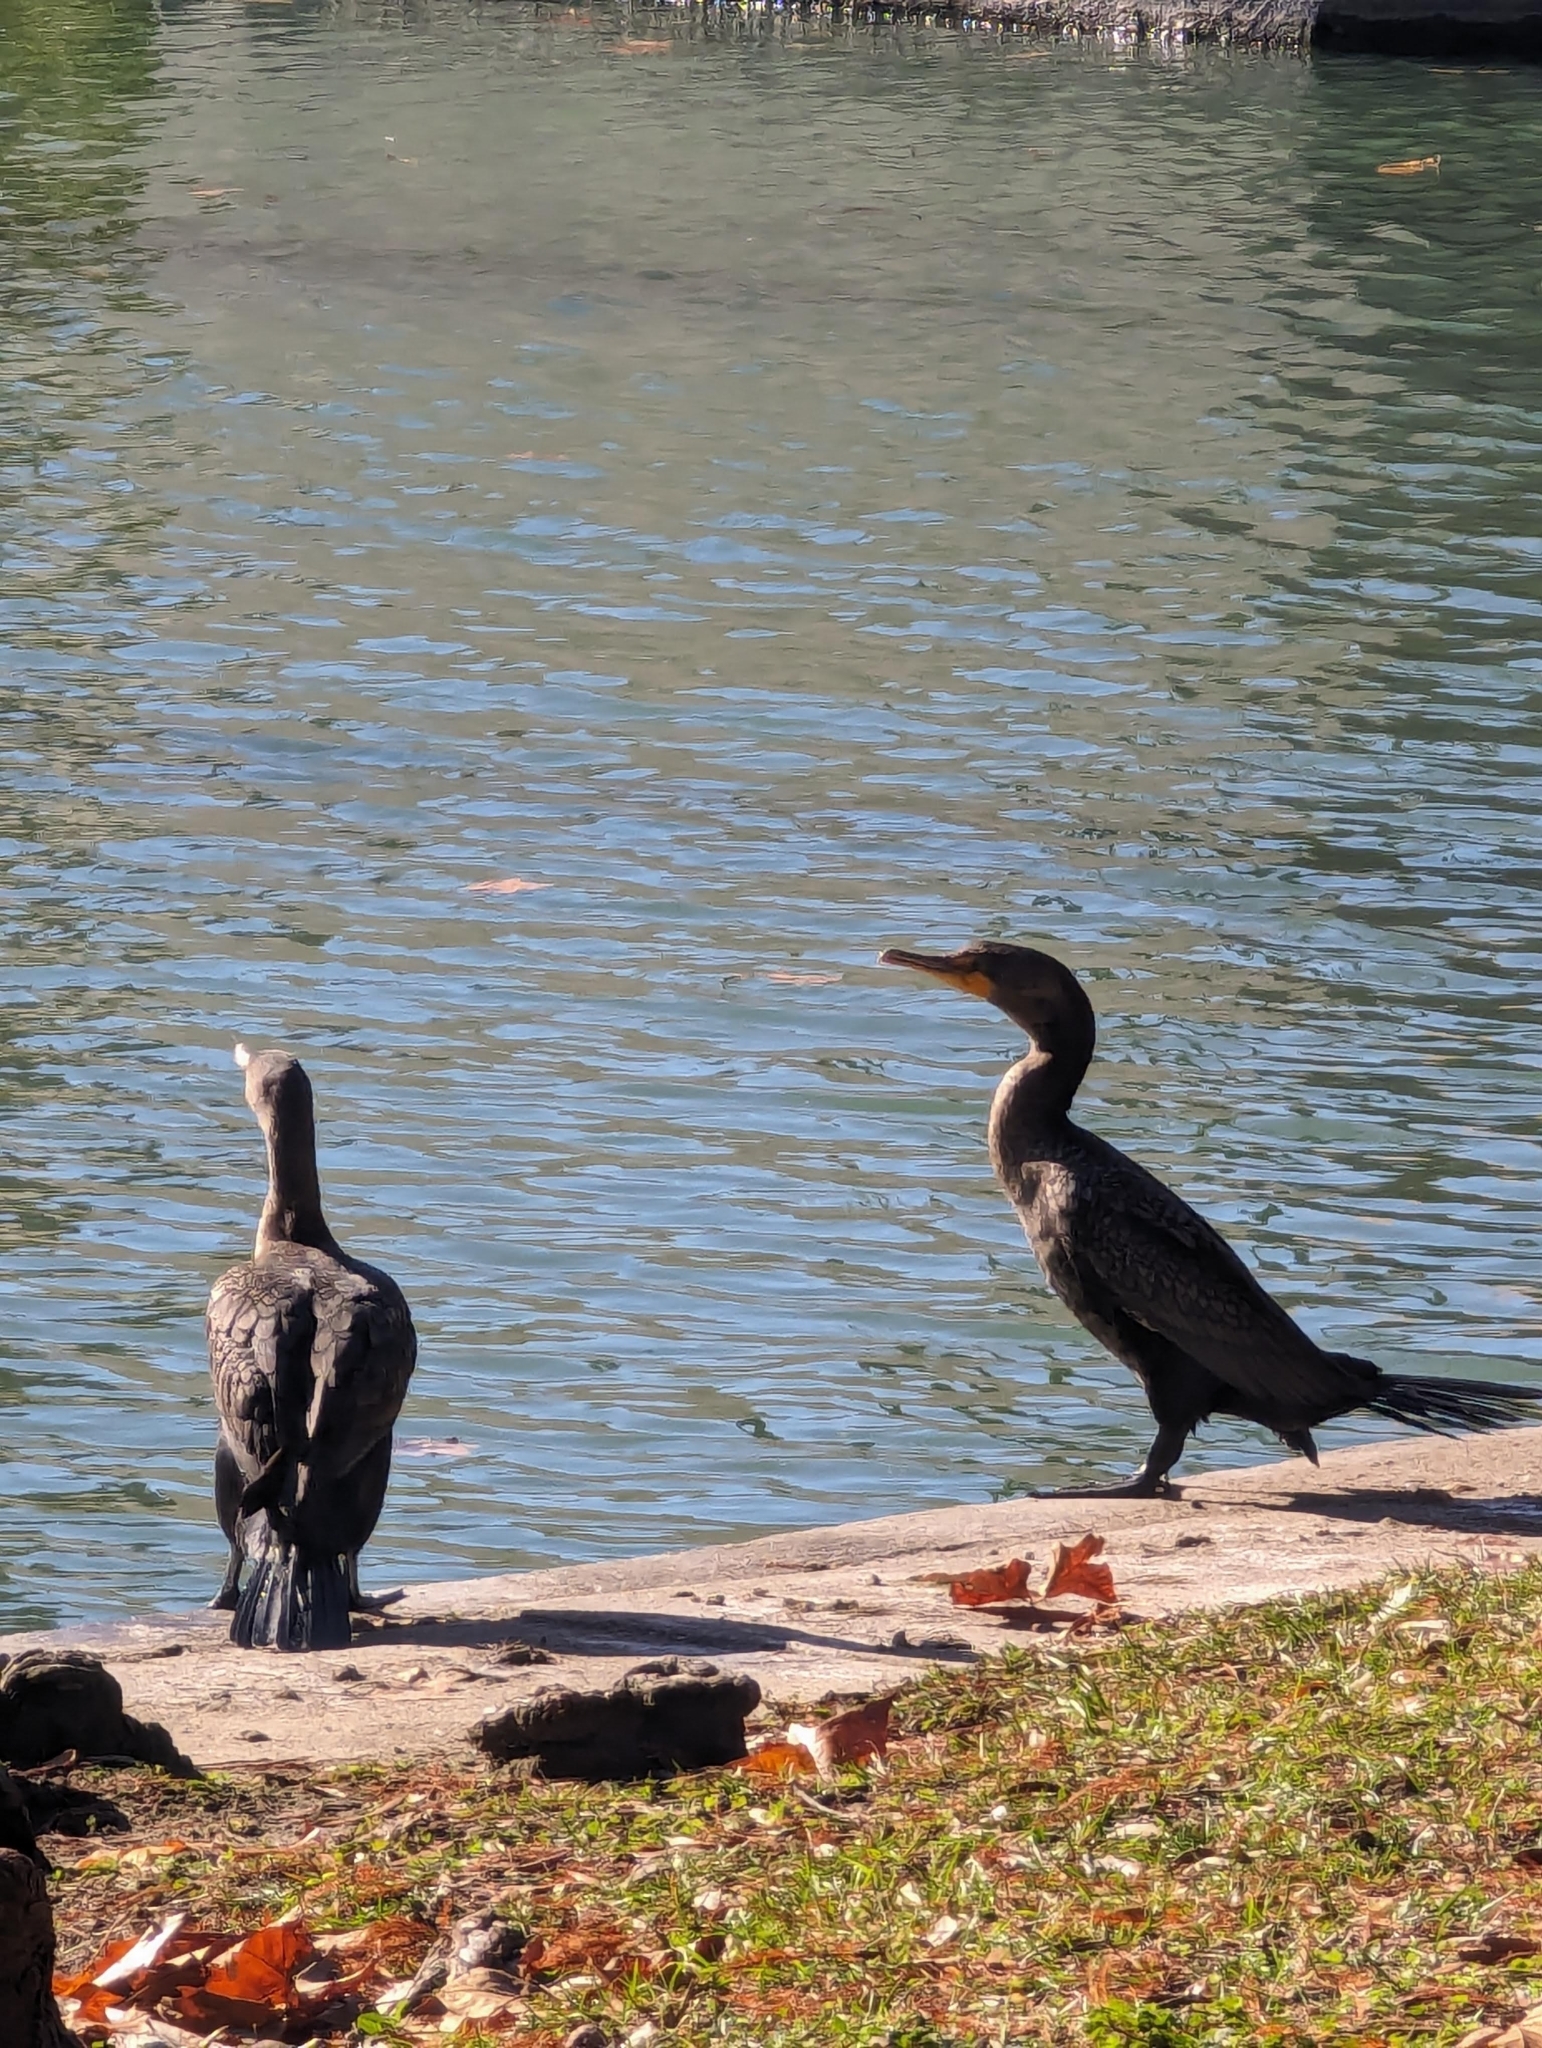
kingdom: Animalia
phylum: Chordata
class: Aves
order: Suliformes
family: Phalacrocoracidae
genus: Phalacrocorax
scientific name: Phalacrocorax auritus
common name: Double-crested cormorant
